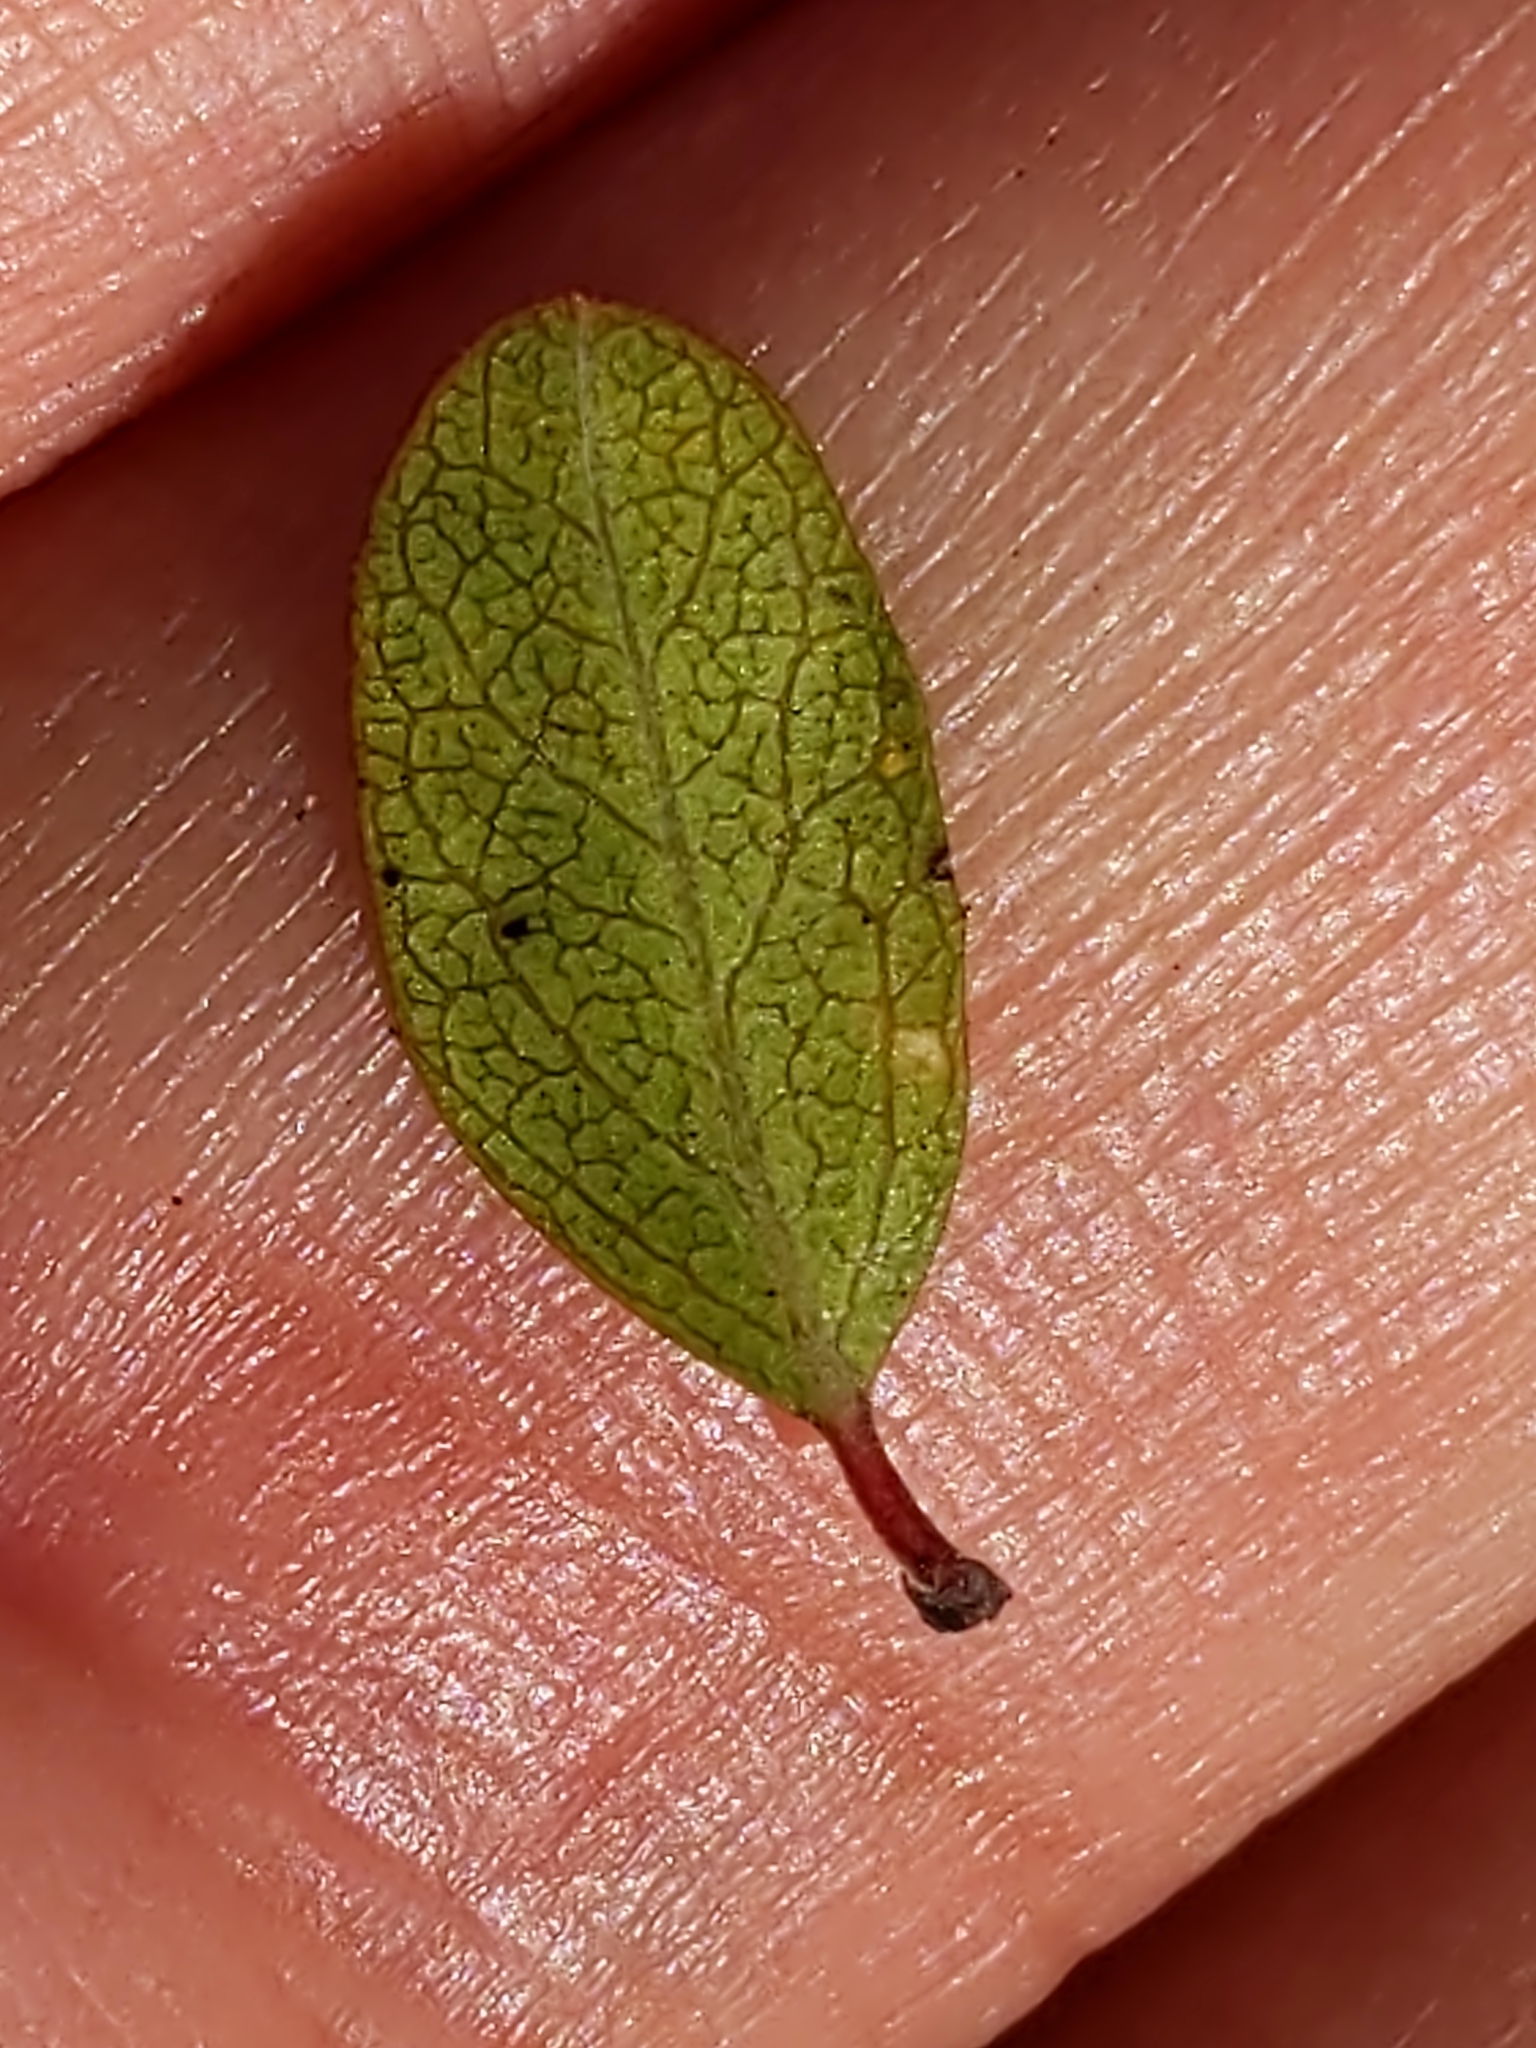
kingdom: Plantae
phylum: Tracheophyta
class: Magnoliopsida
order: Rosales
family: Rhamnaceae
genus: Endotropis
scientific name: Endotropis crocea
